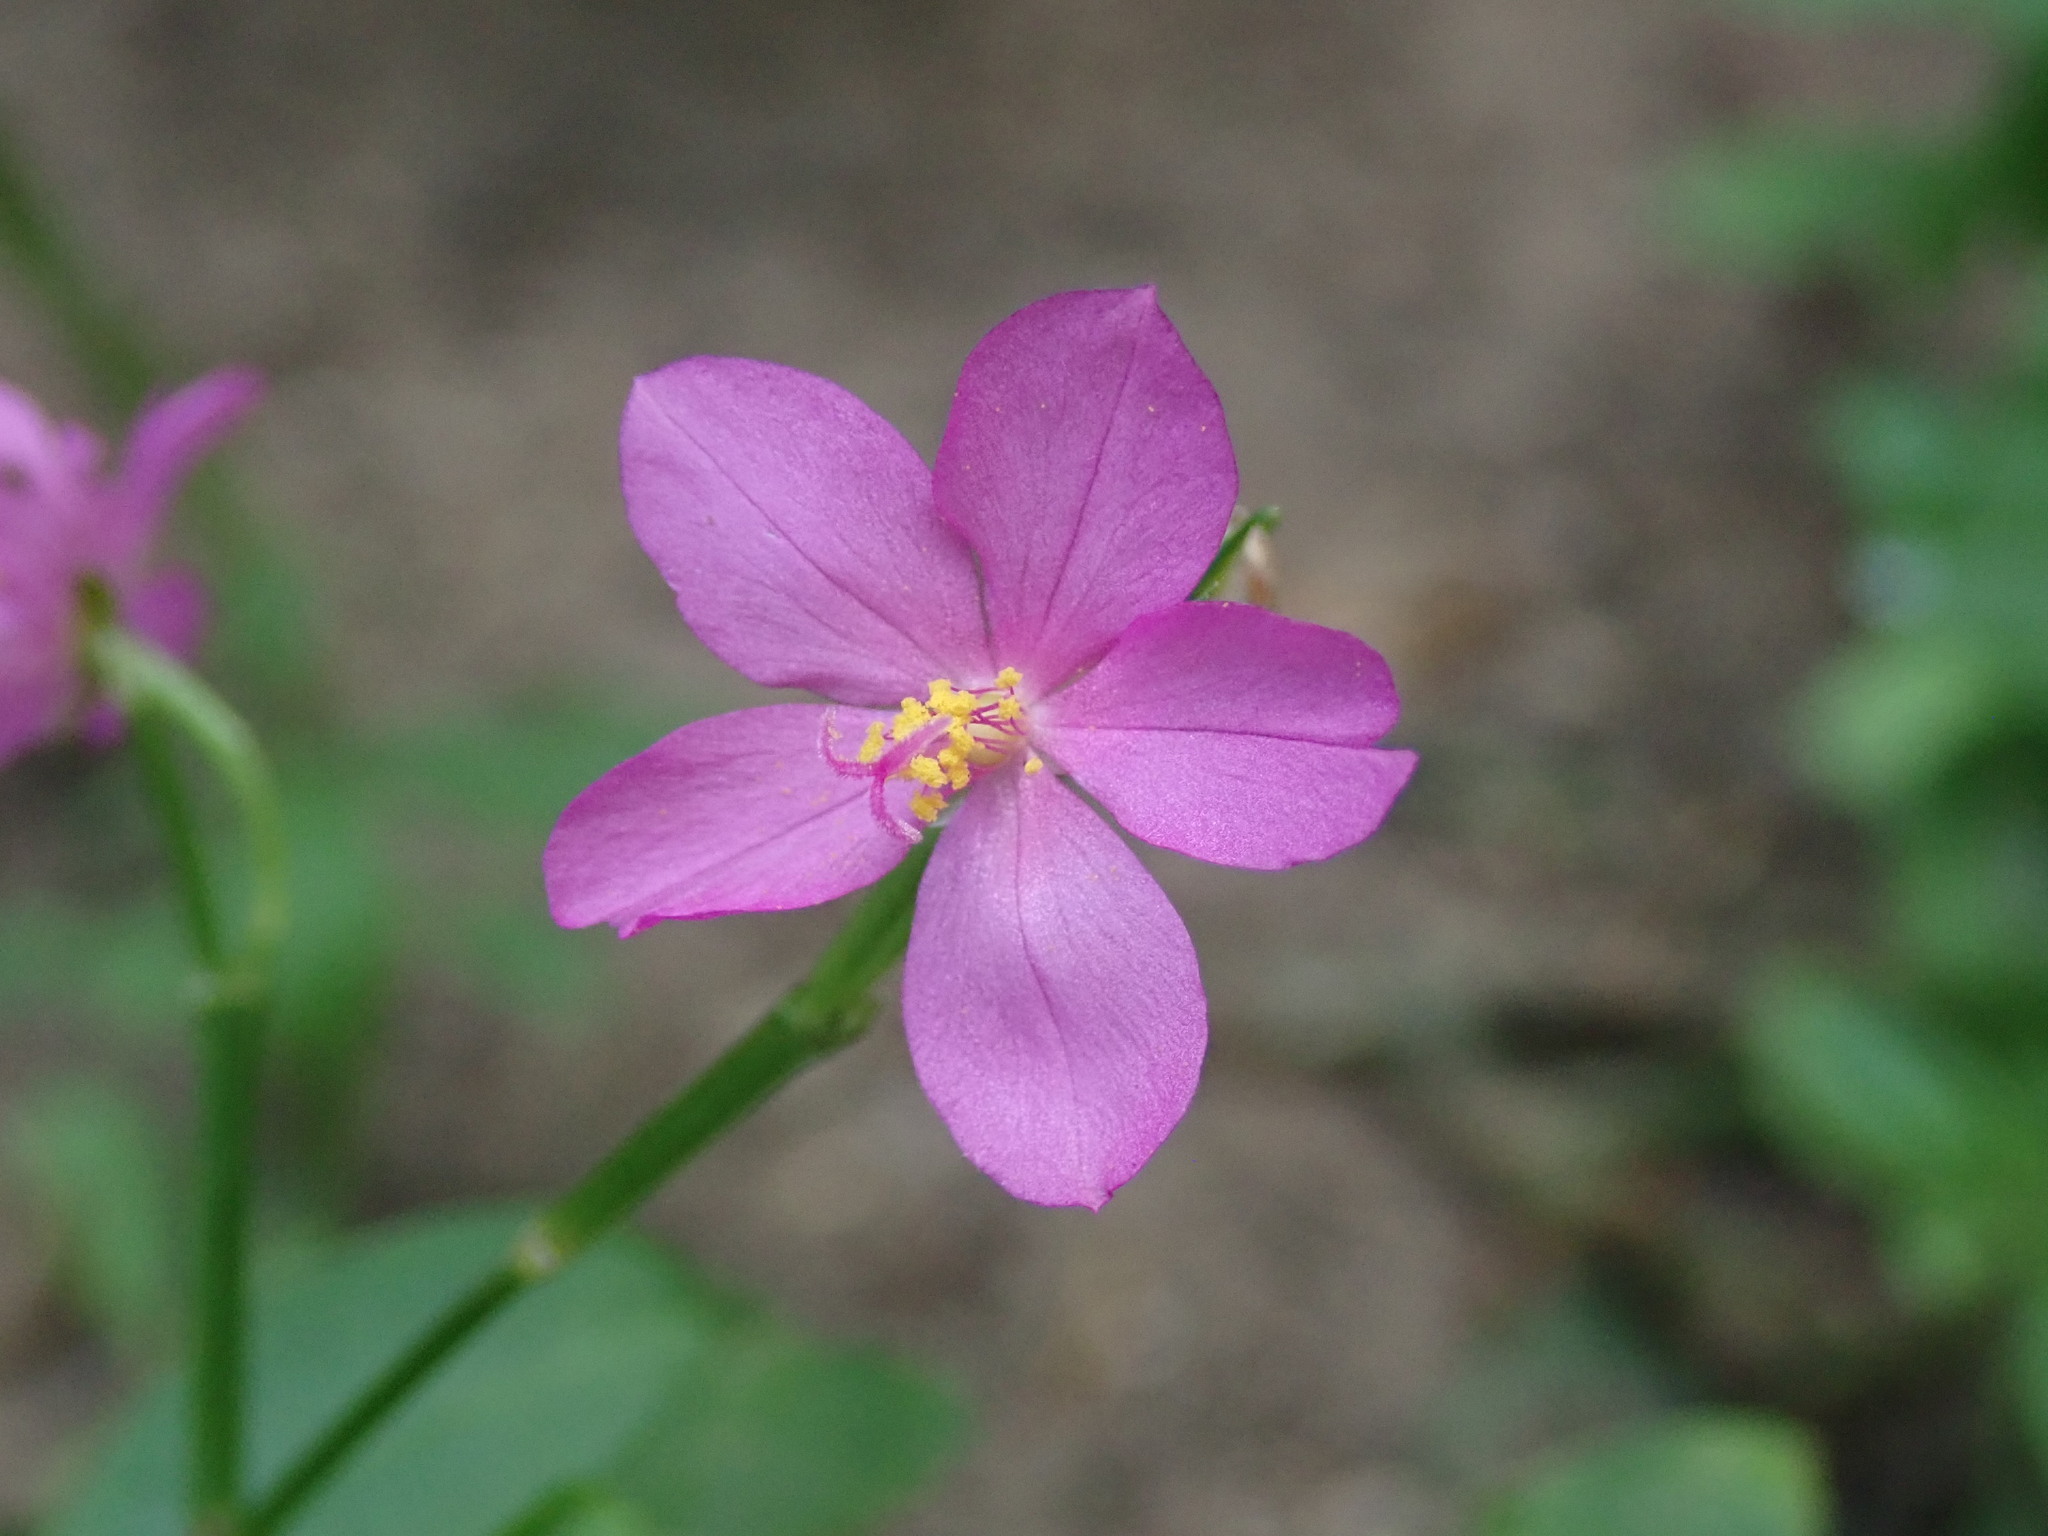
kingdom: Plantae
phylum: Tracheophyta
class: Magnoliopsida
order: Caryophyllales
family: Talinaceae
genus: Talinum
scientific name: Talinum fruticosum
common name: Verdolaga-francesa
